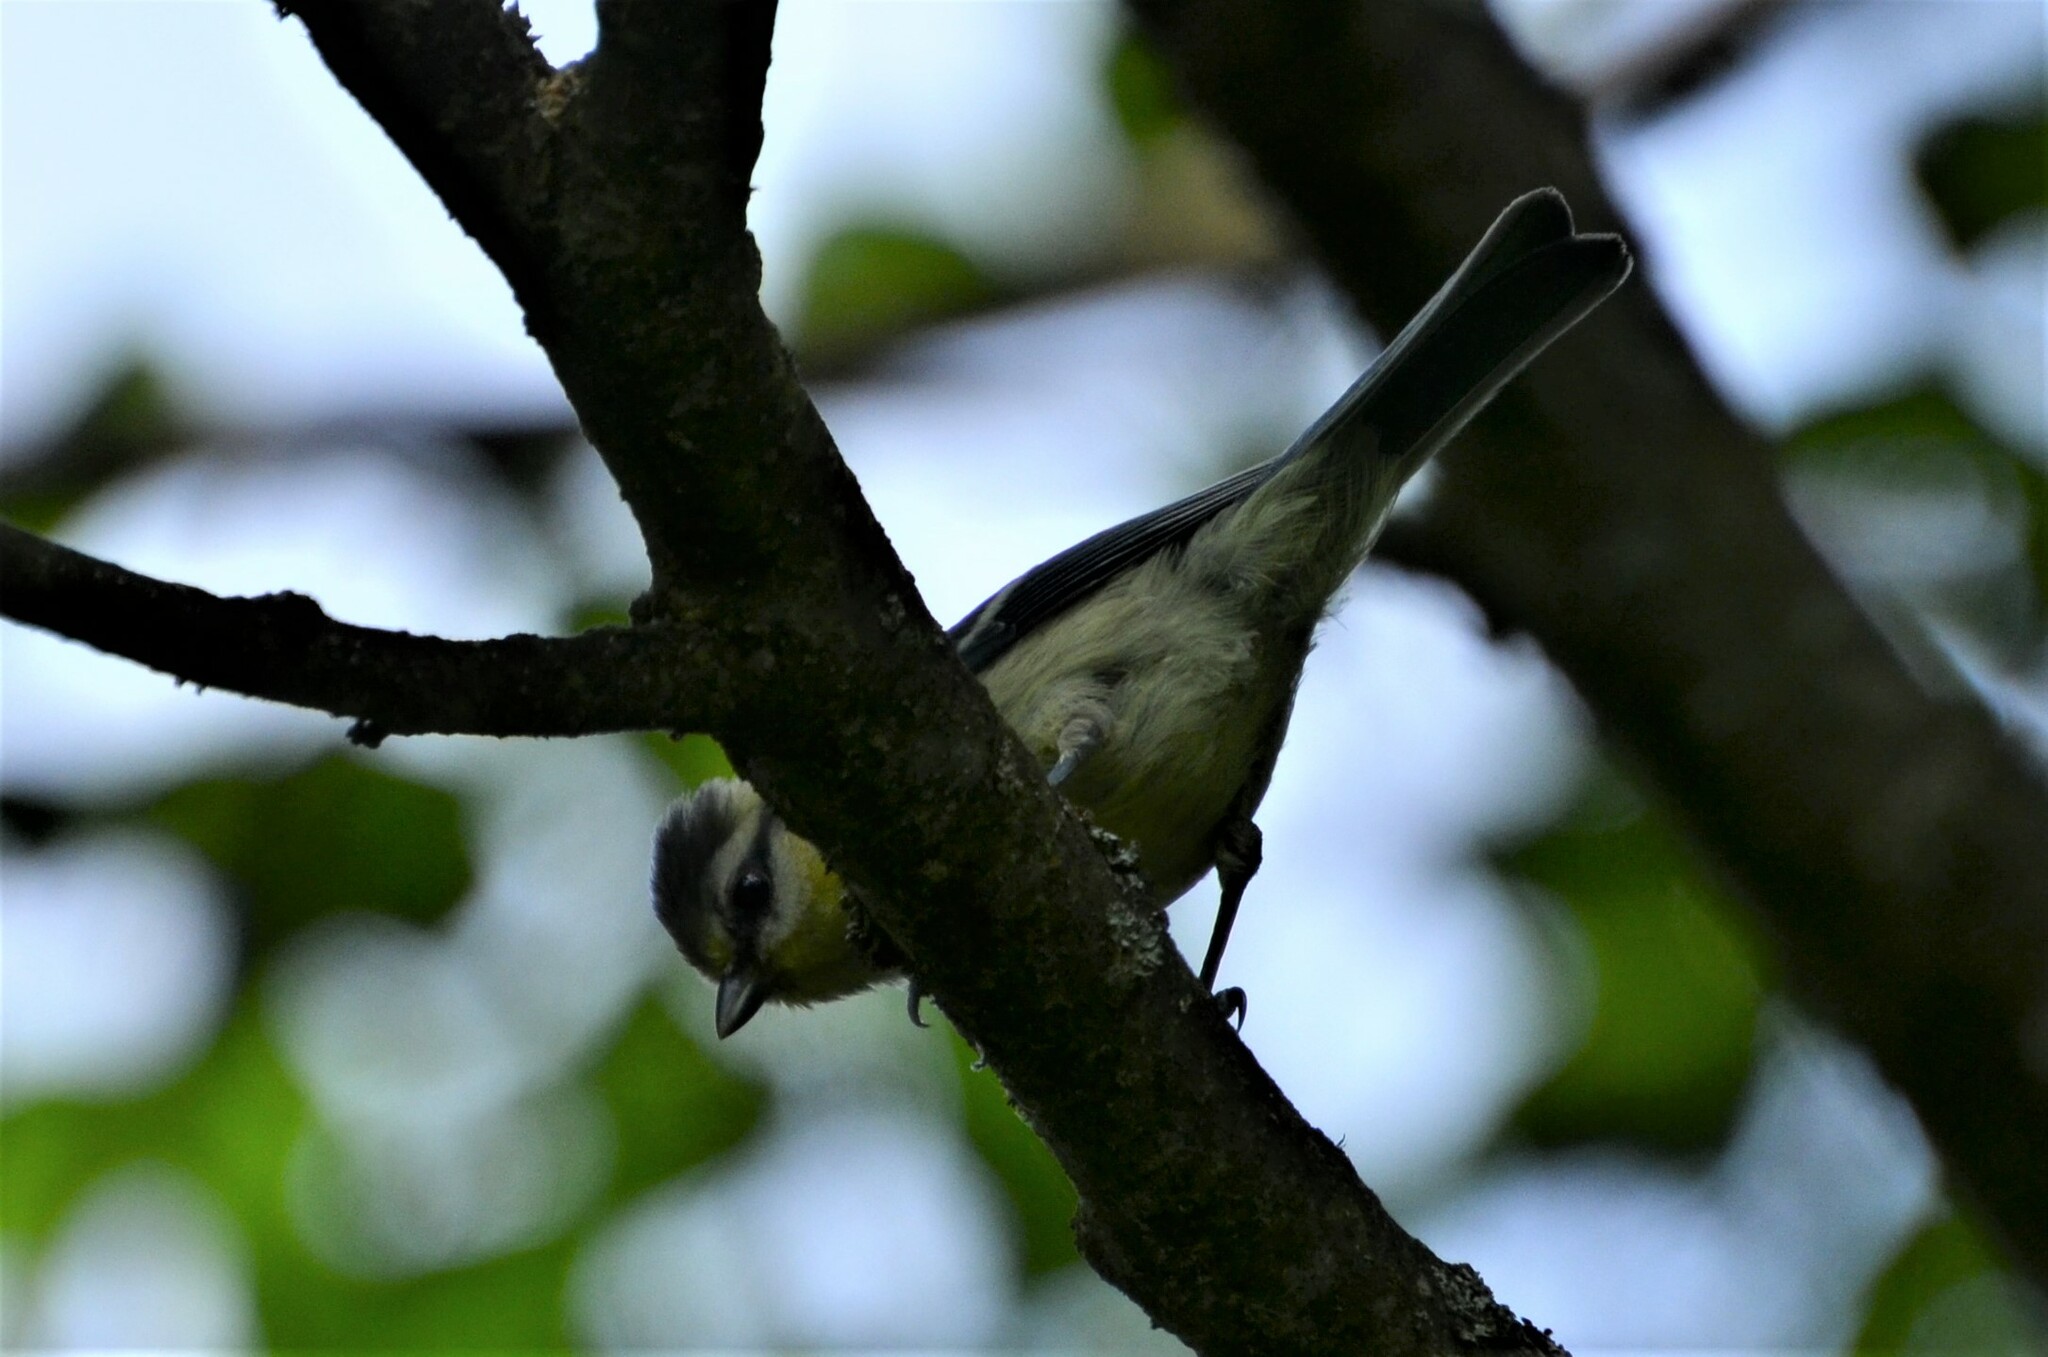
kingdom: Animalia
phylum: Chordata
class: Aves
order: Passeriformes
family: Paridae
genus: Cyanistes
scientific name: Cyanistes caeruleus
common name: Eurasian blue tit
